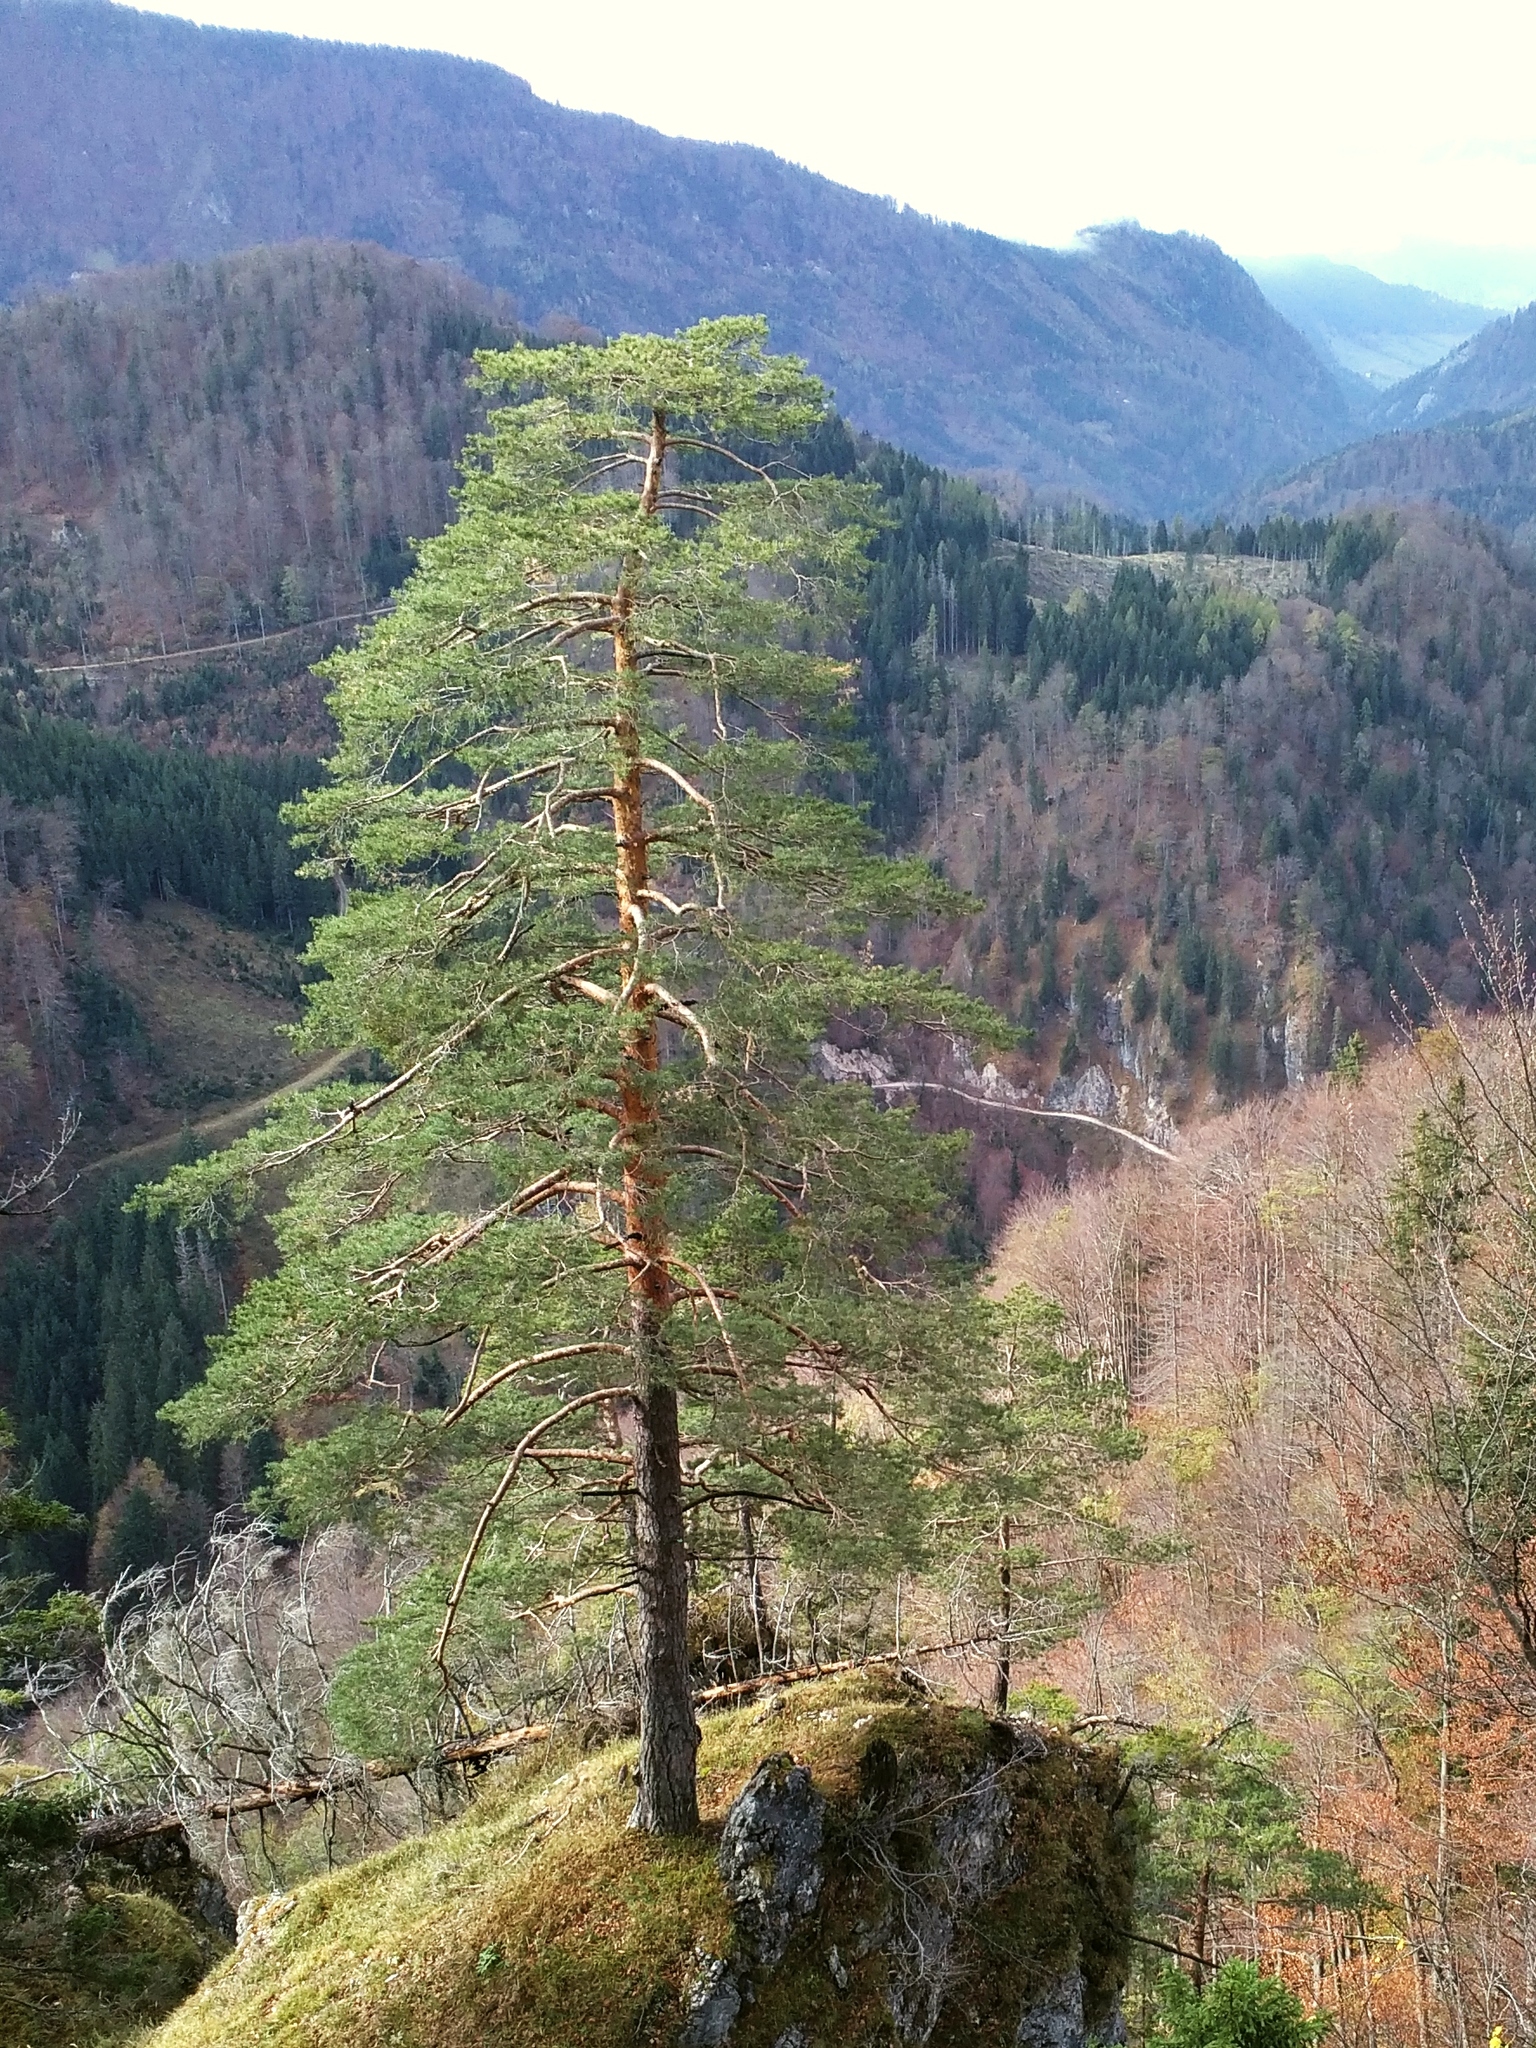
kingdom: Plantae
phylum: Tracheophyta
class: Pinopsida
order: Pinales
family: Pinaceae
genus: Pinus
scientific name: Pinus sylvestris
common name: Scots pine
